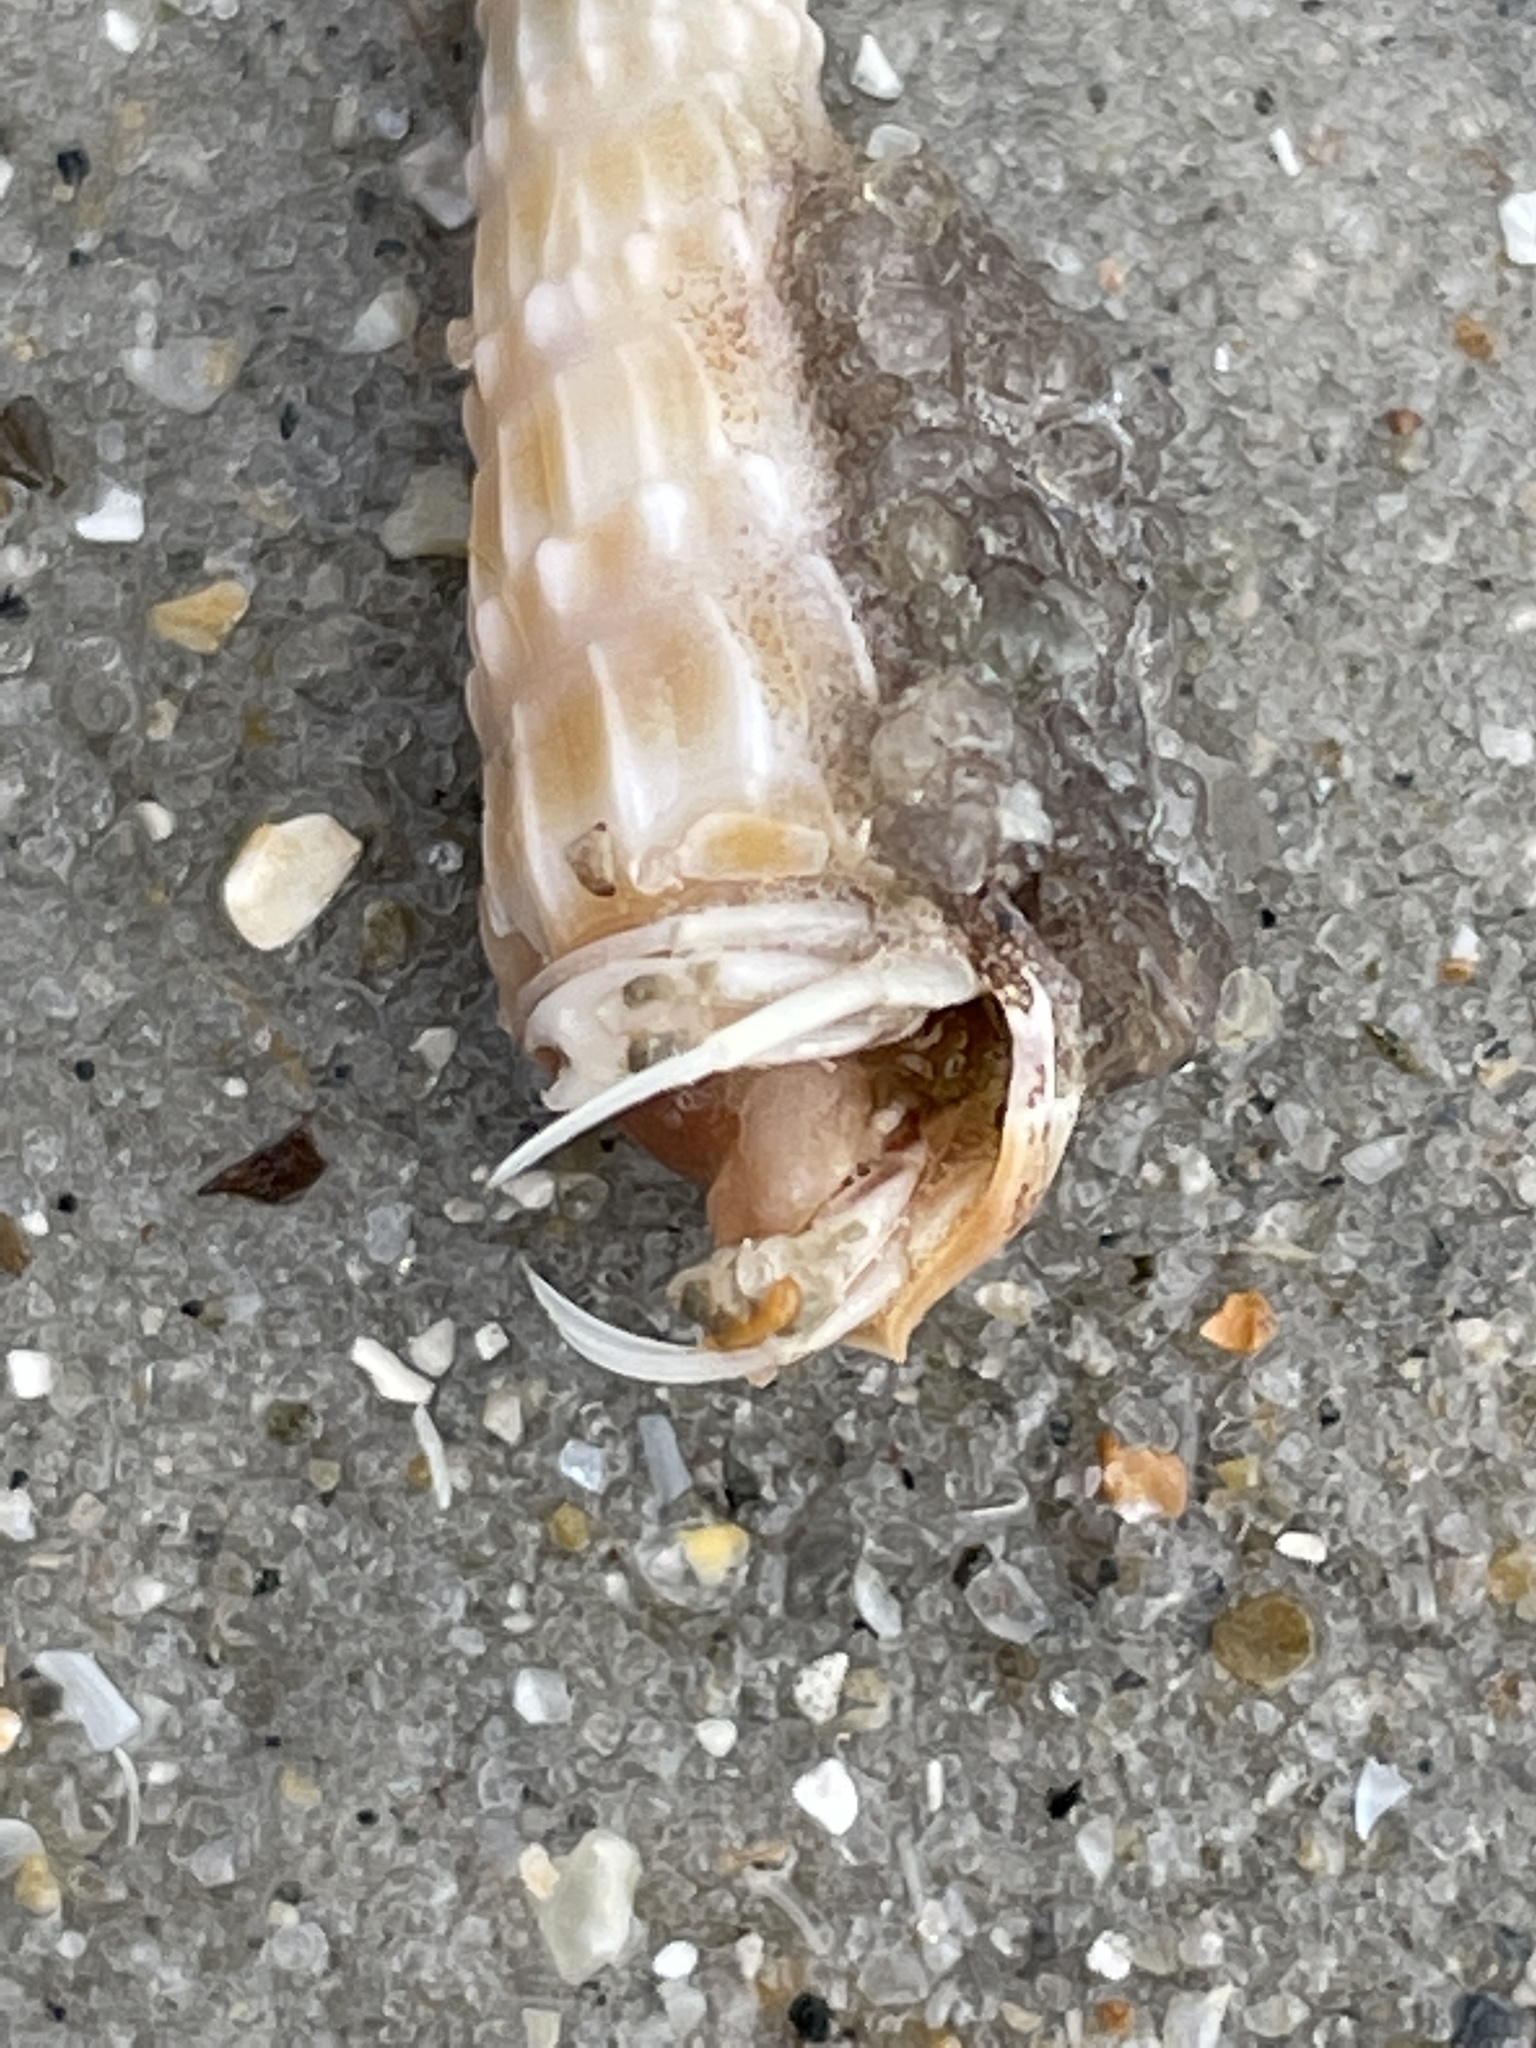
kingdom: Animalia
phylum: Arthropoda
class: Malacostraca
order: Decapoda
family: Paguridae
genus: Pagurus
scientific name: Pagurus longicarpus
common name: Long-armed hermit crab
